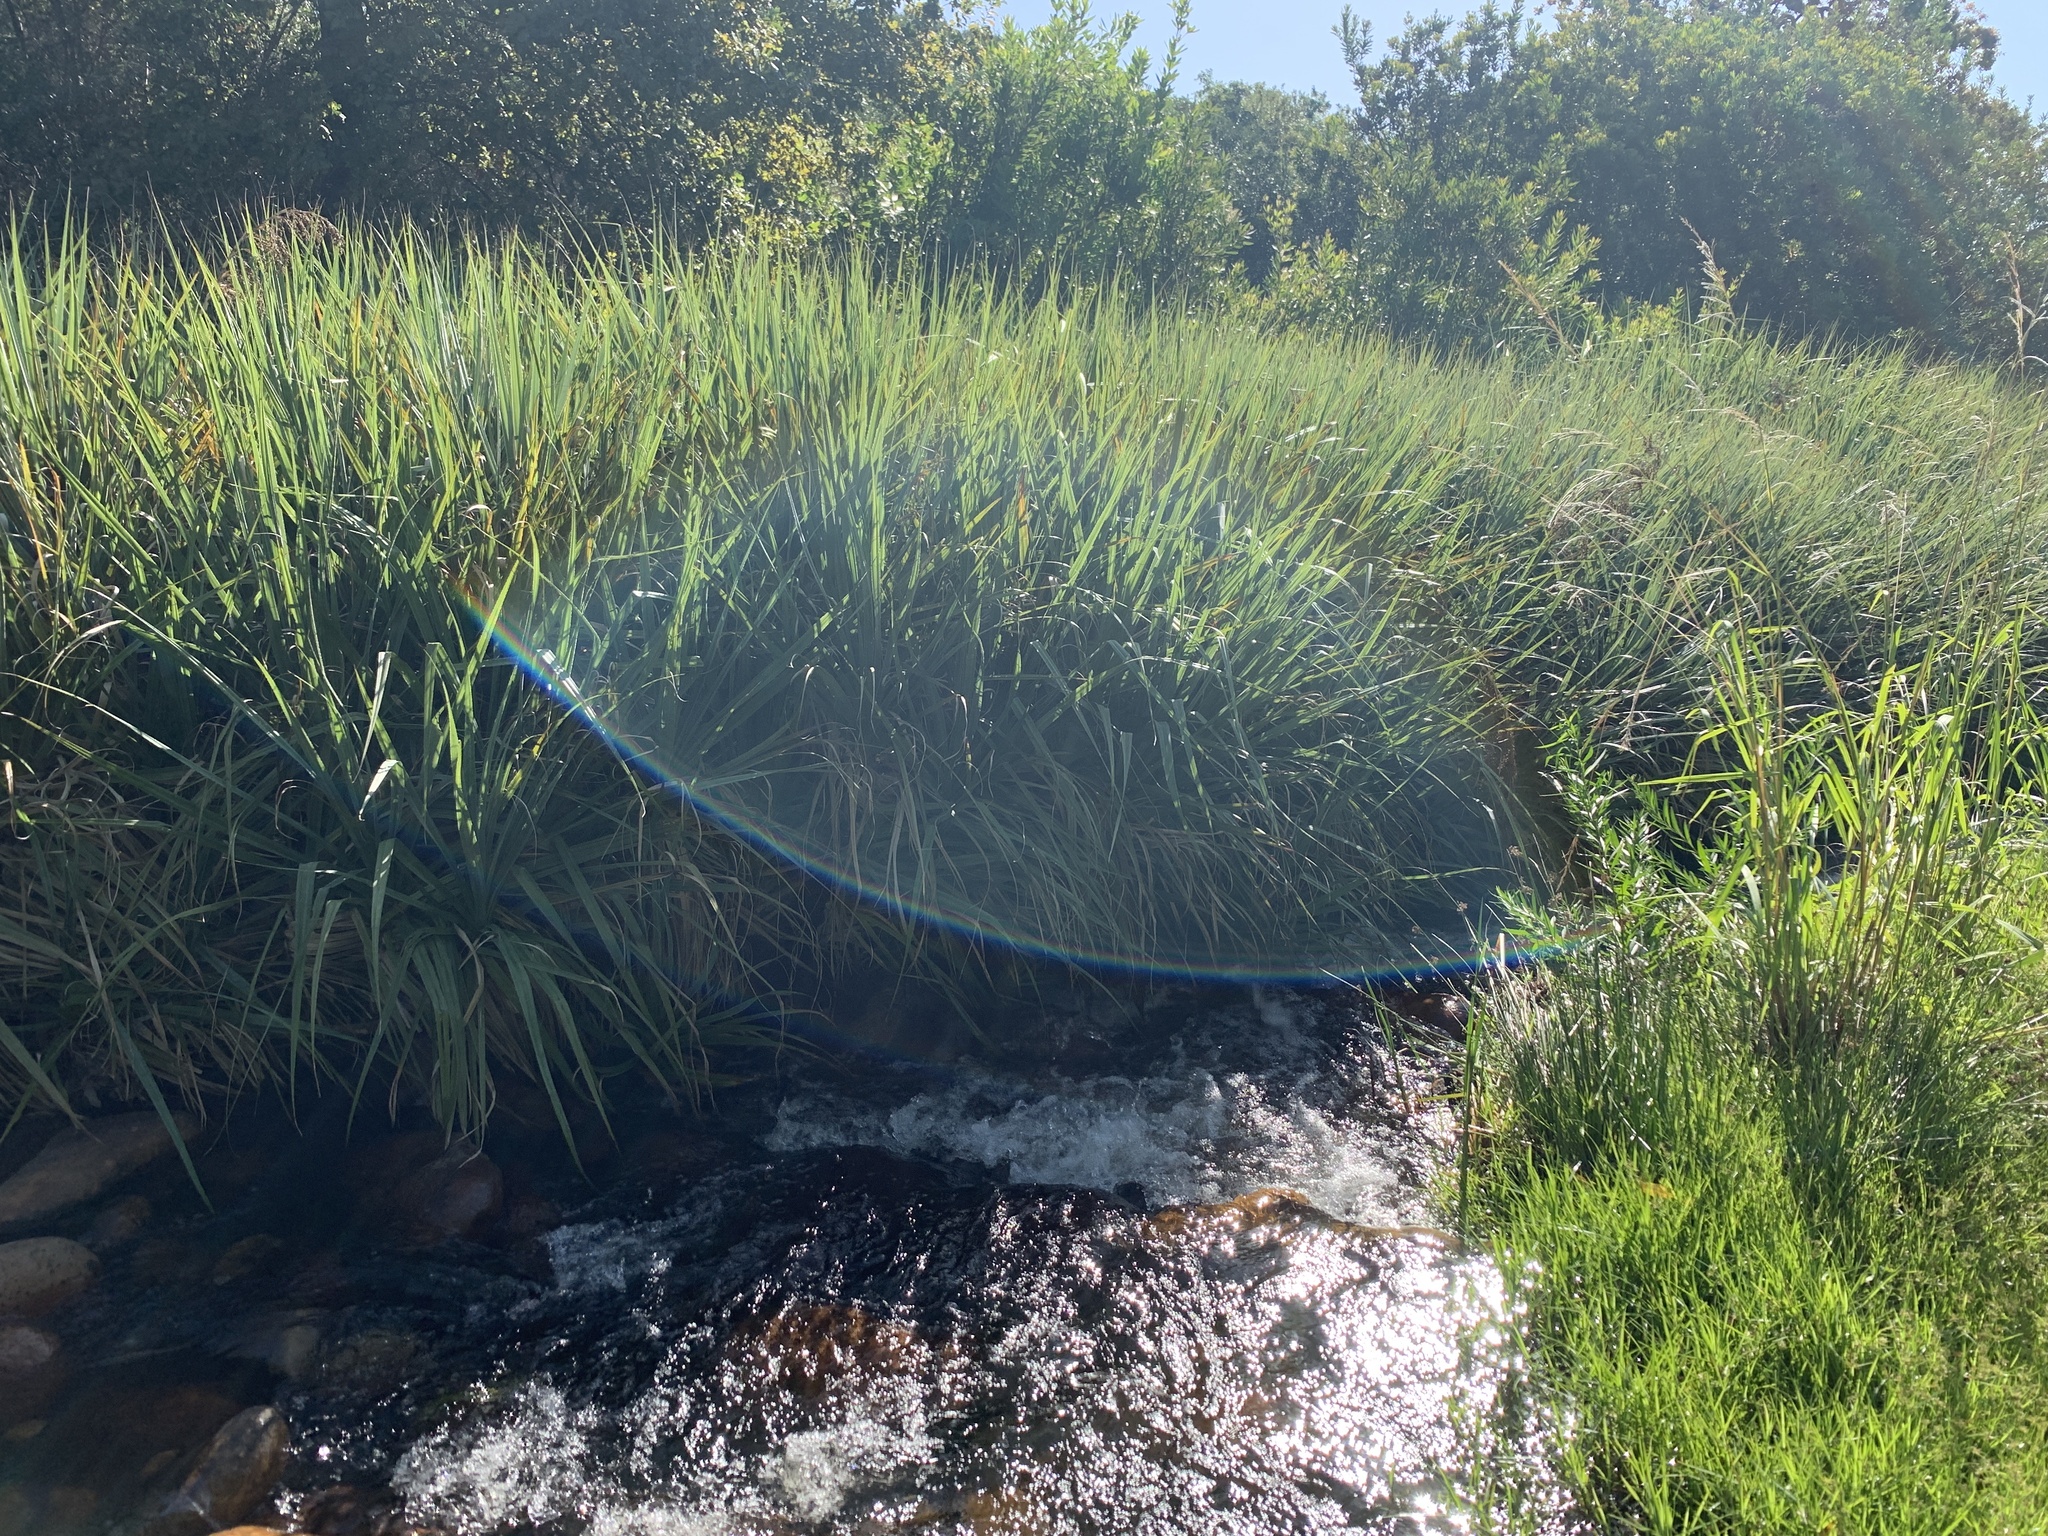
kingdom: Plantae
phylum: Tracheophyta
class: Liliopsida
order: Poales
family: Thurniaceae
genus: Prionium
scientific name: Prionium serratum
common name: Palmiet
